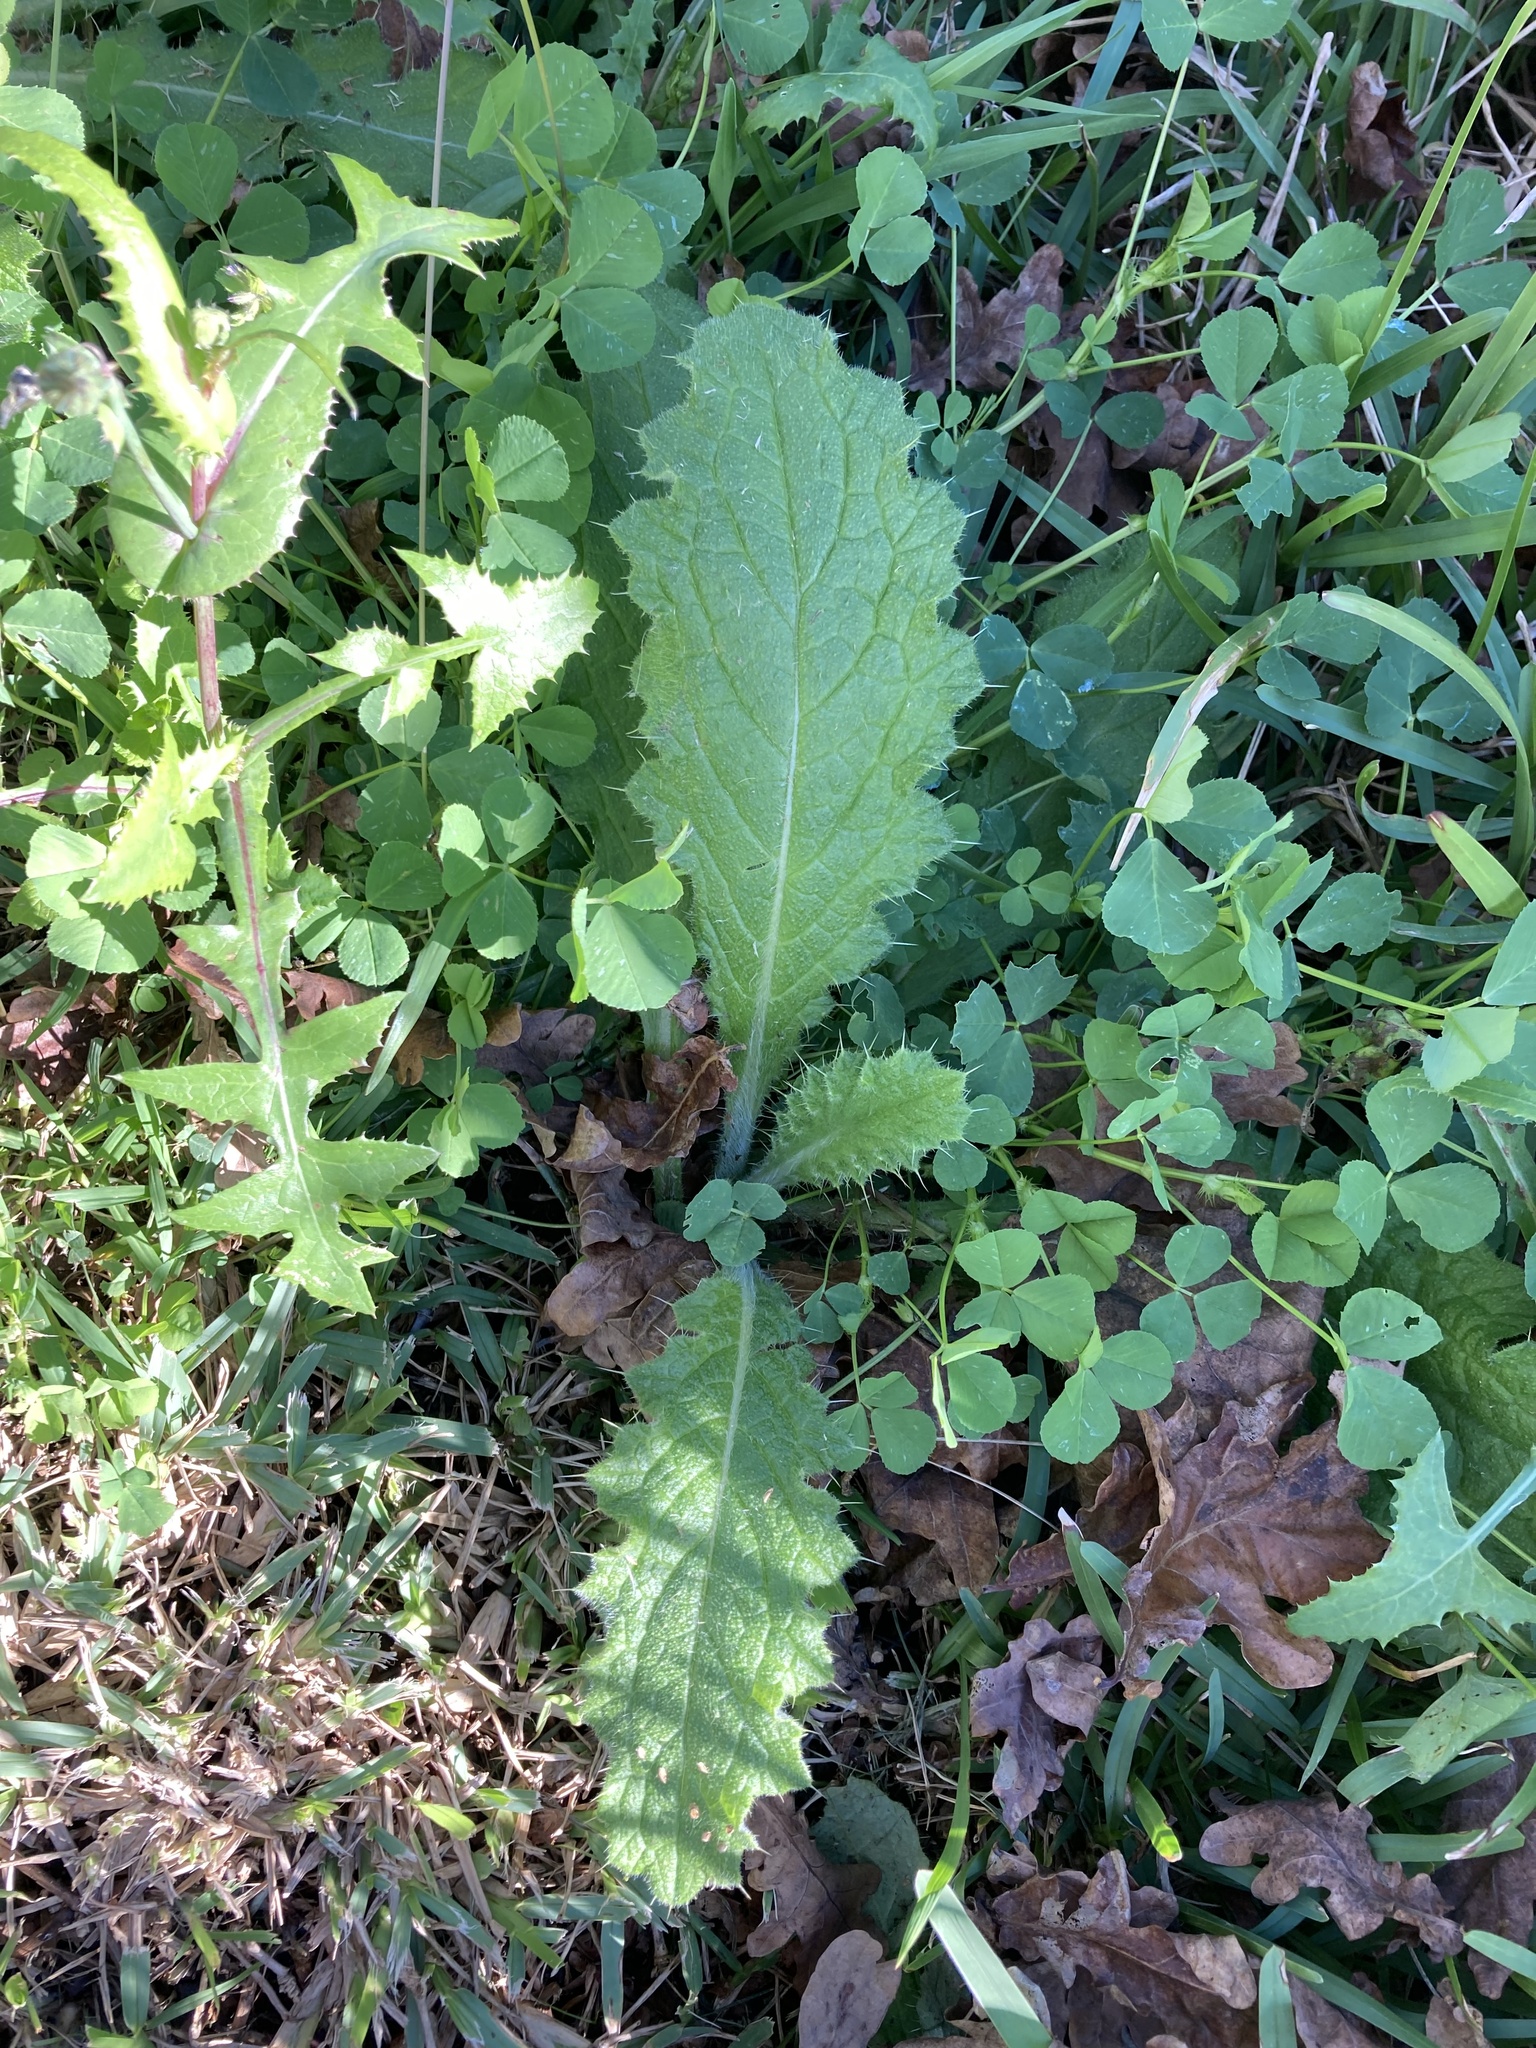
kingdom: Plantae
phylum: Tracheophyta
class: Magnoliopsida
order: Asterales
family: Asteraceae
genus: Cirsium
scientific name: Cirsium vulgare
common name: Bull thistle
